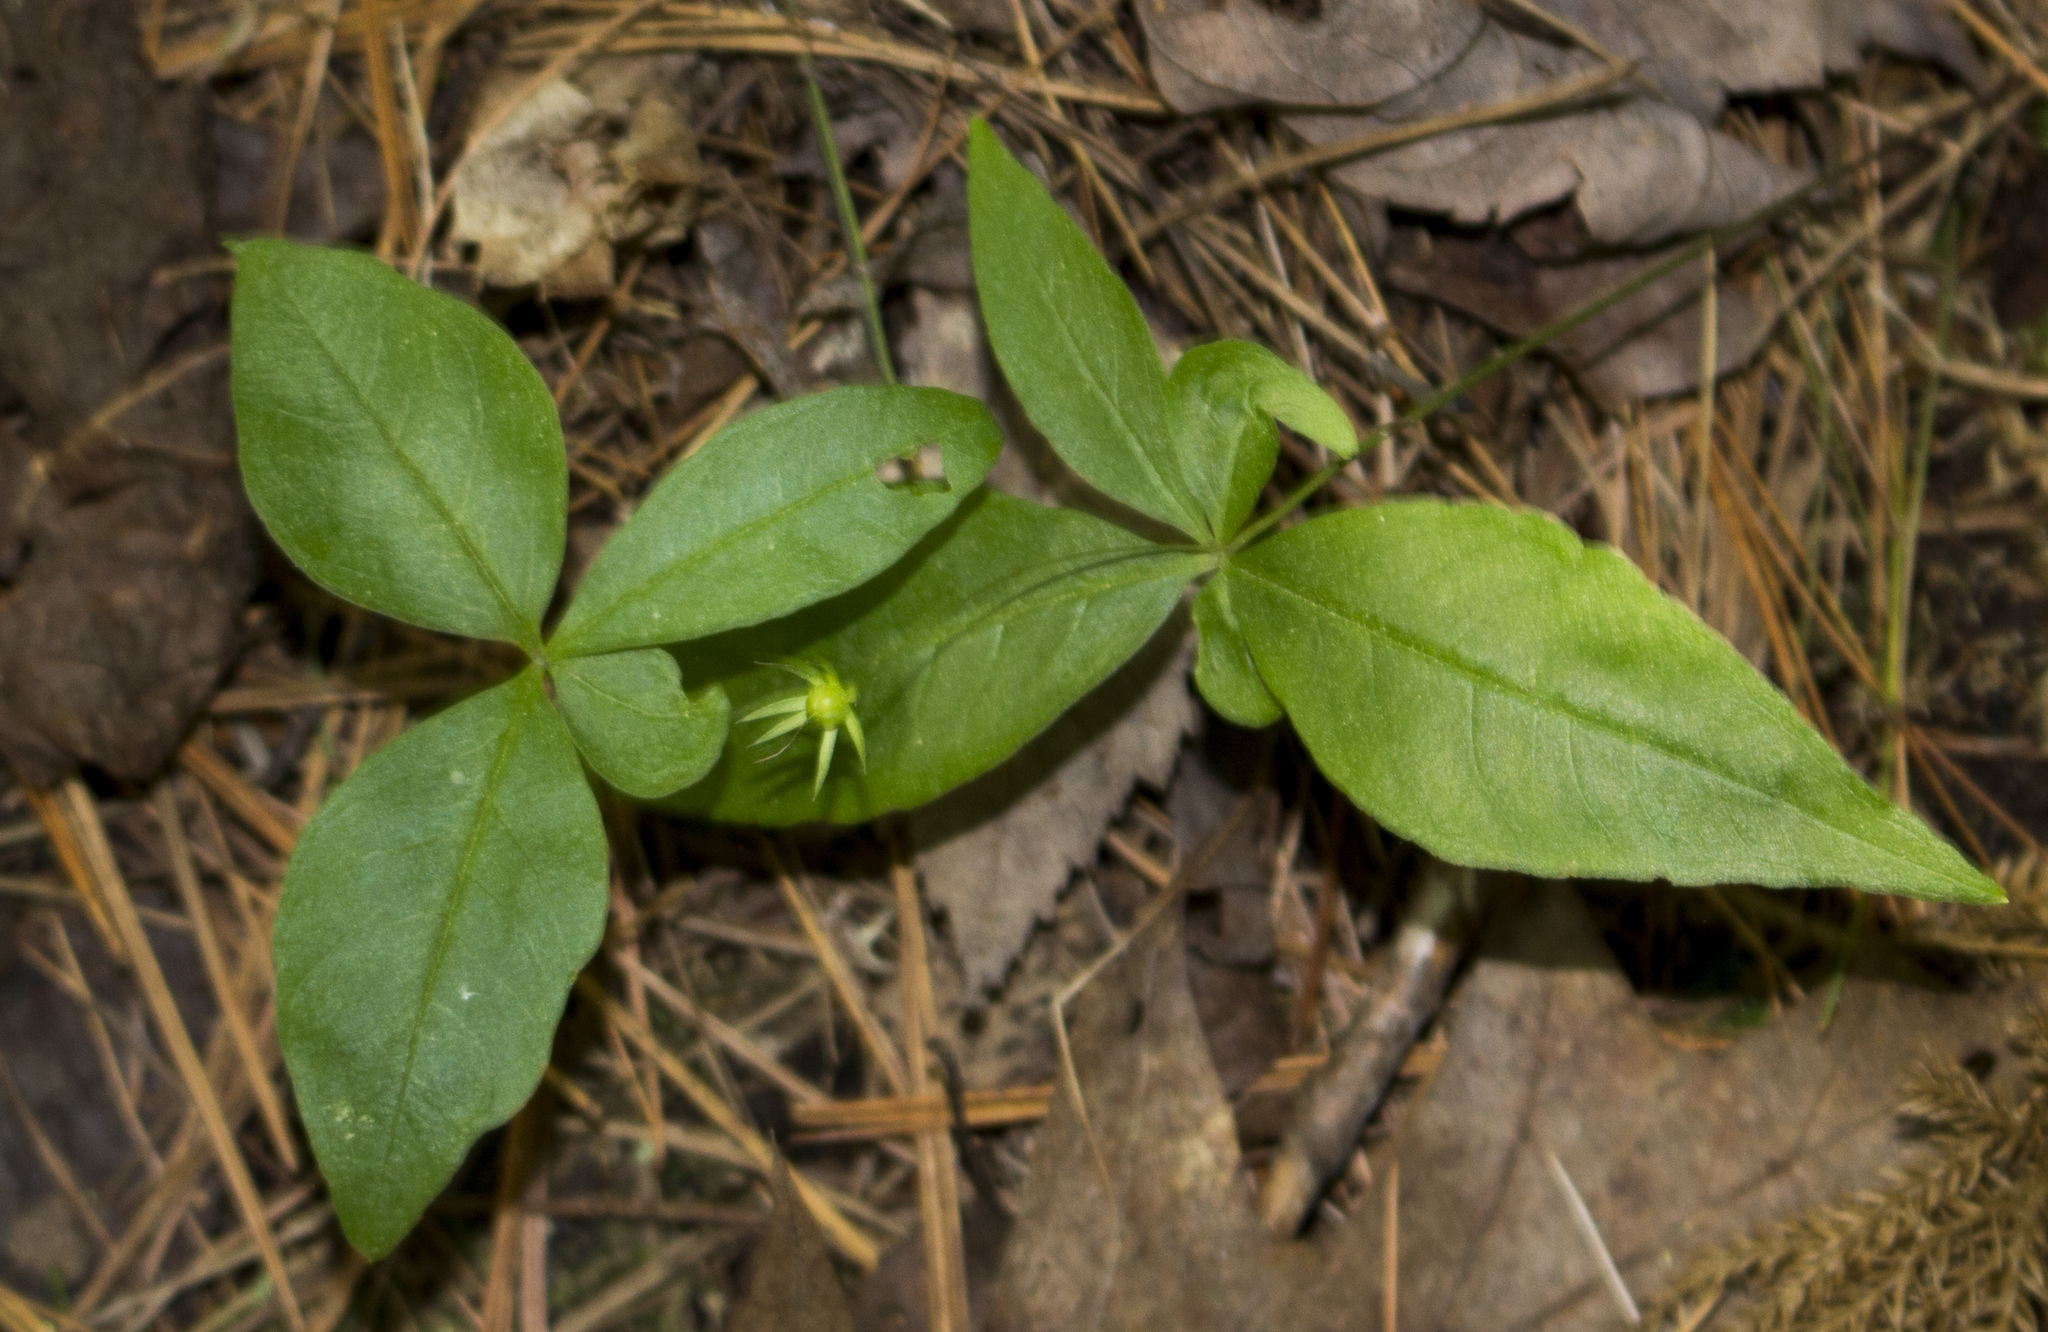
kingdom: Plantae
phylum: Tracheophyta
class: Magnoliopsida
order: Ericales
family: Primulaceae
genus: Lysimachia
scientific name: Lysimachia borealis
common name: American starflower
